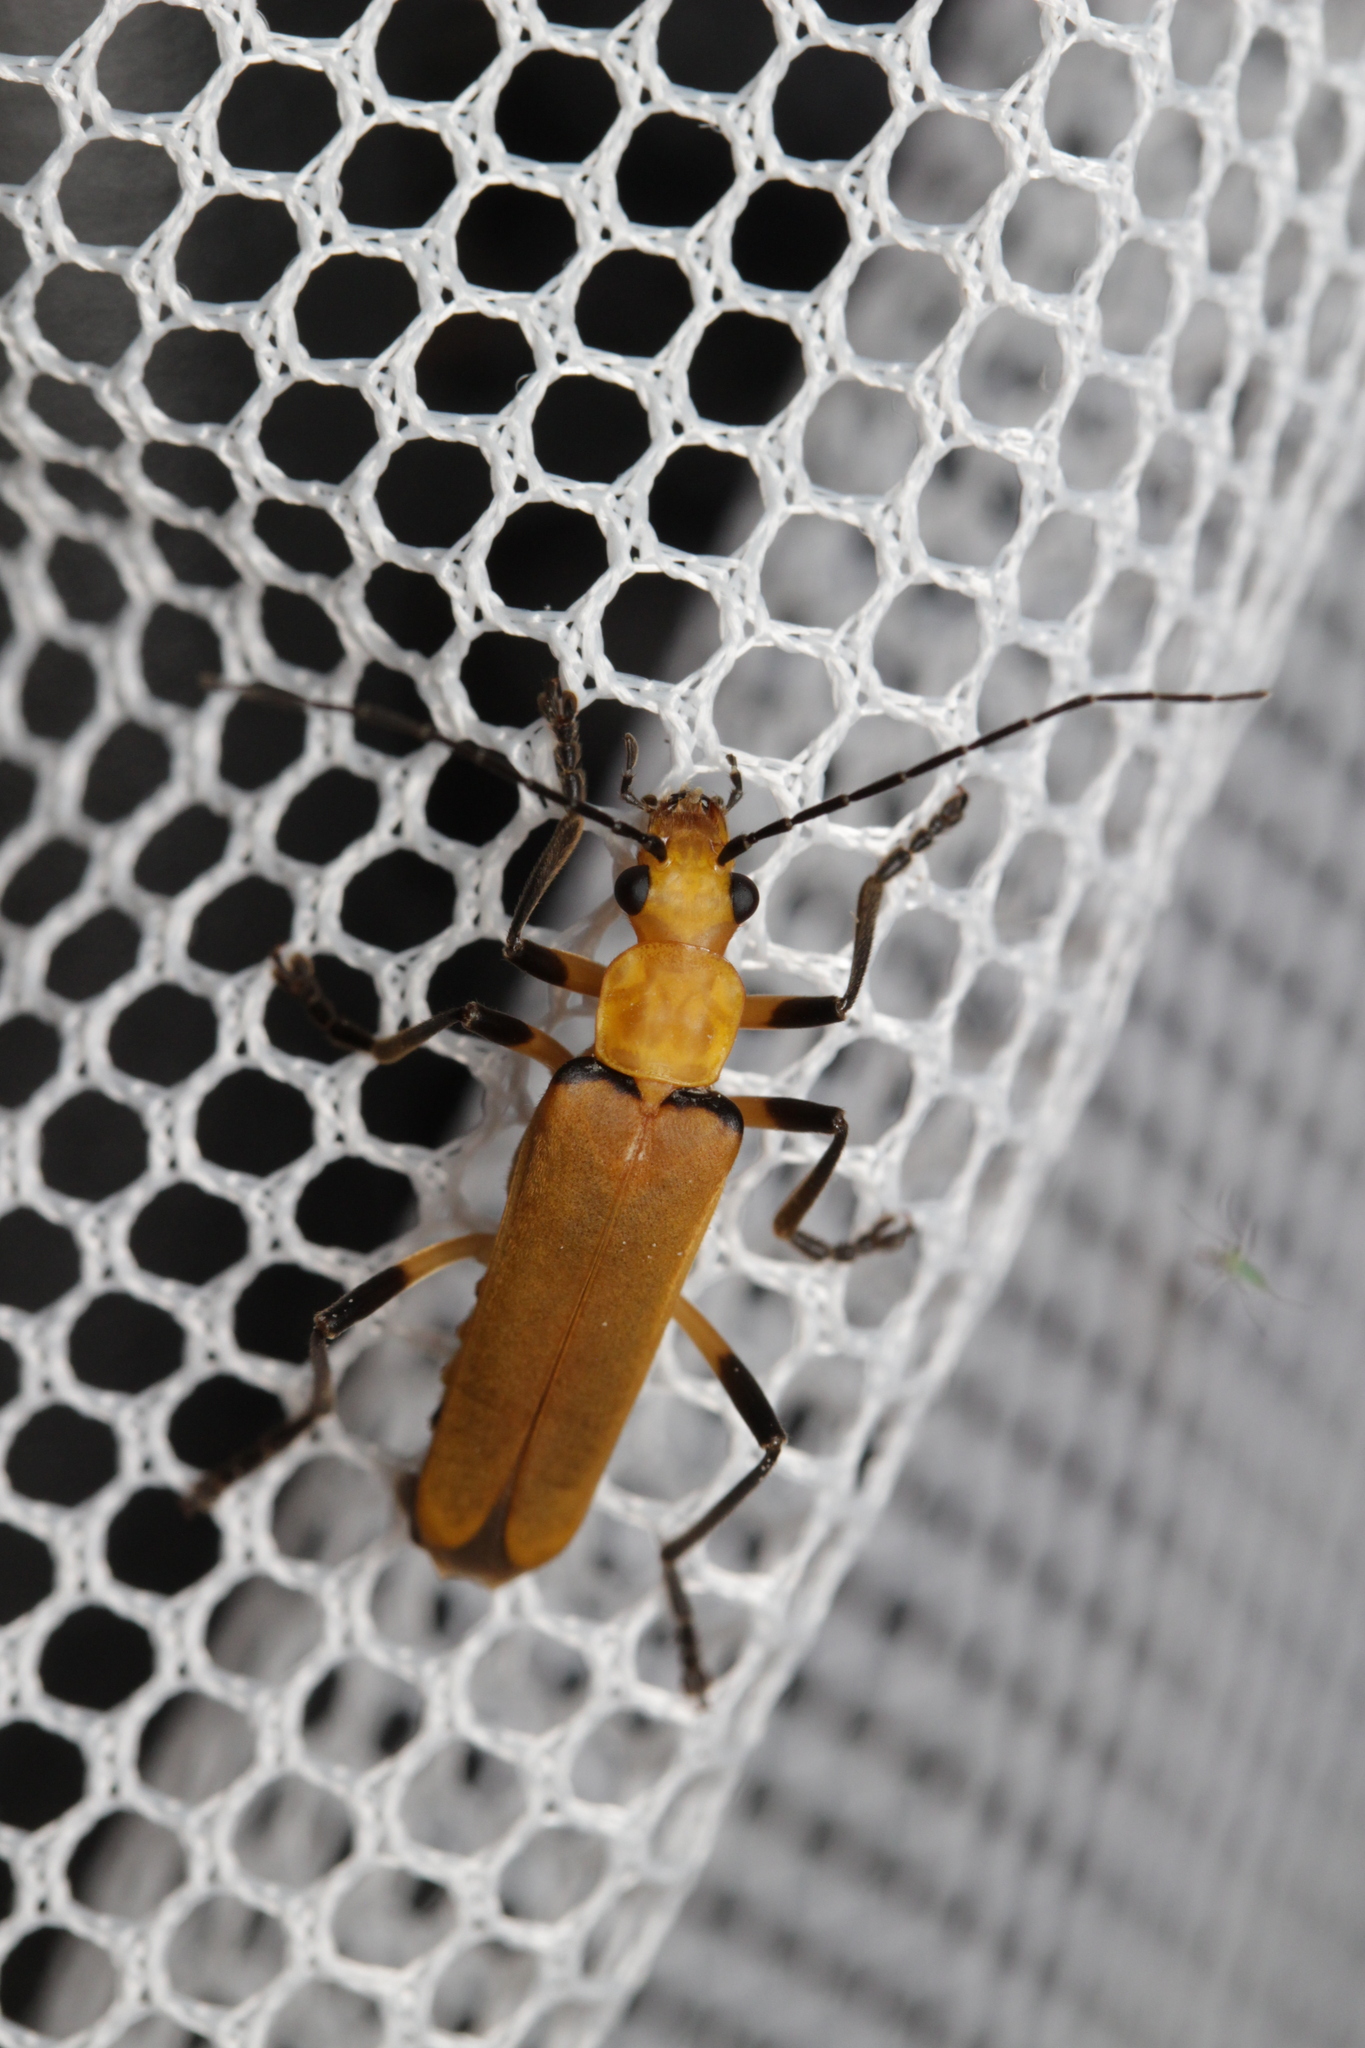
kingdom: Animalia
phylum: Arthropoda
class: Insecta
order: Coleoptera
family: Cantharidae
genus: Chauliognathus
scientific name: Chauliognathus
